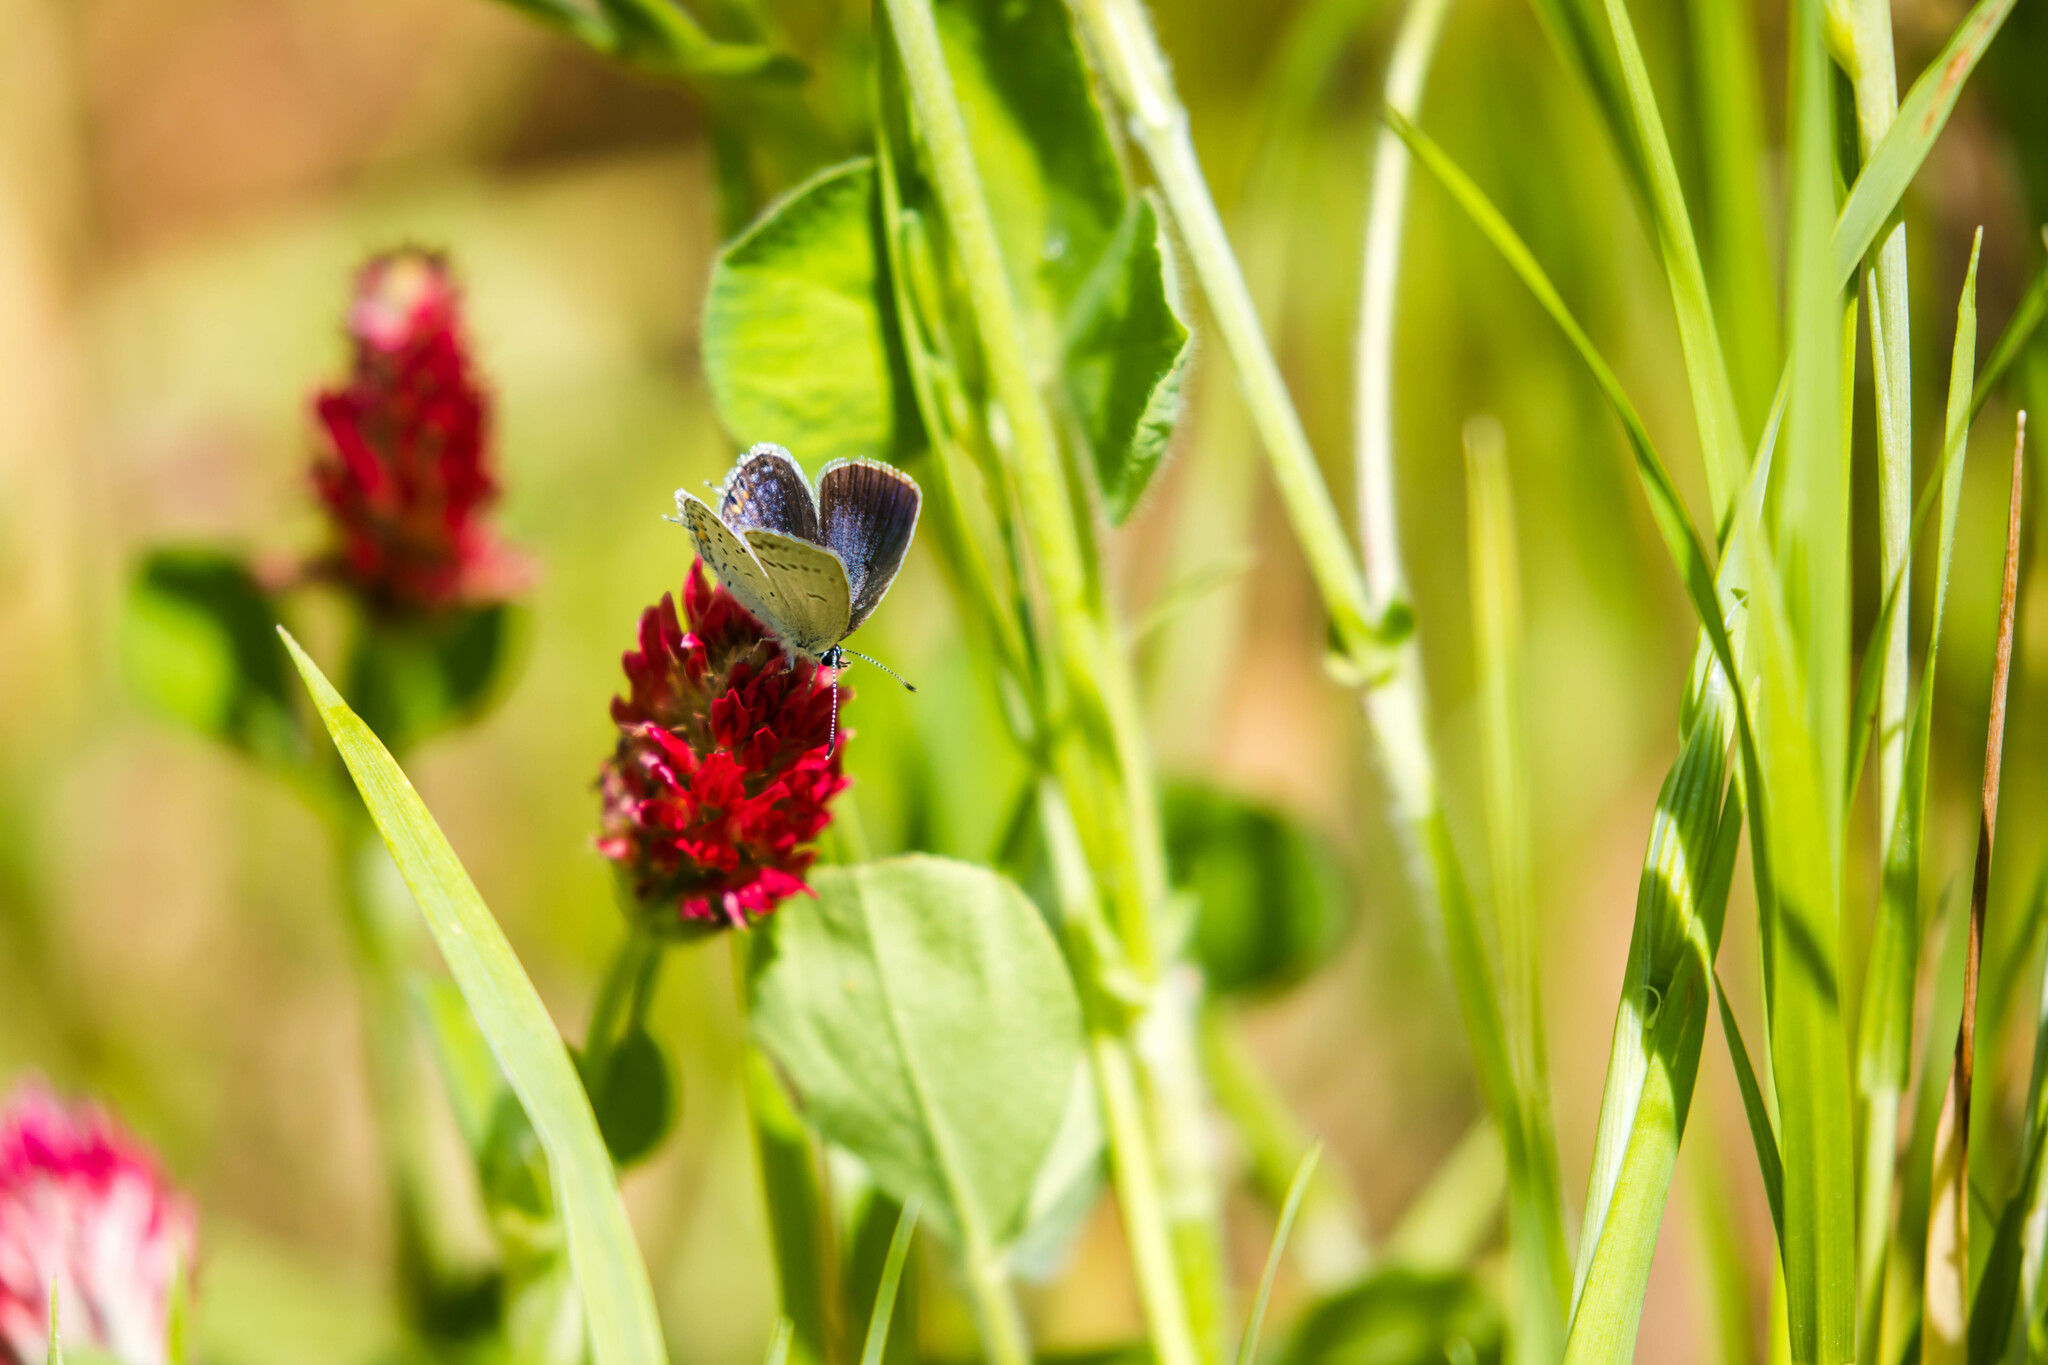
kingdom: Animalia
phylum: Arthropoda
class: Insecta
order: Lepidoptera
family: Lycaenidae
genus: Elkalyce
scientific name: Elkalyce comyntas
